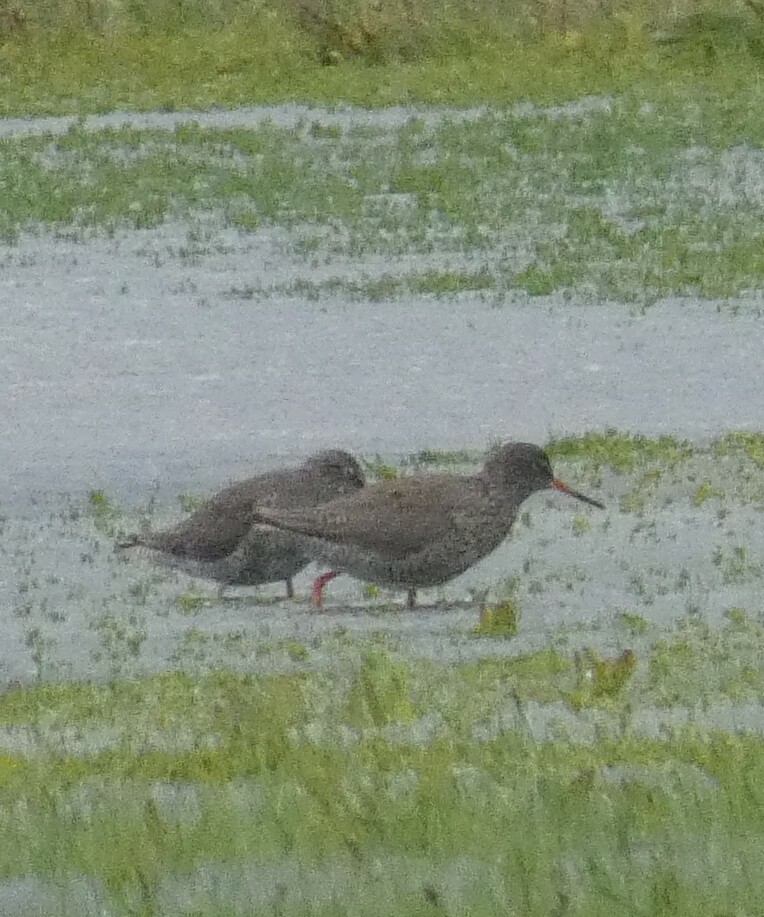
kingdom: Animalia
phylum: Chordata
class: Aves
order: Charadriiformes
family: Scolopacidae
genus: Tringa
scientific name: Tringa totanus
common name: Common redshank
